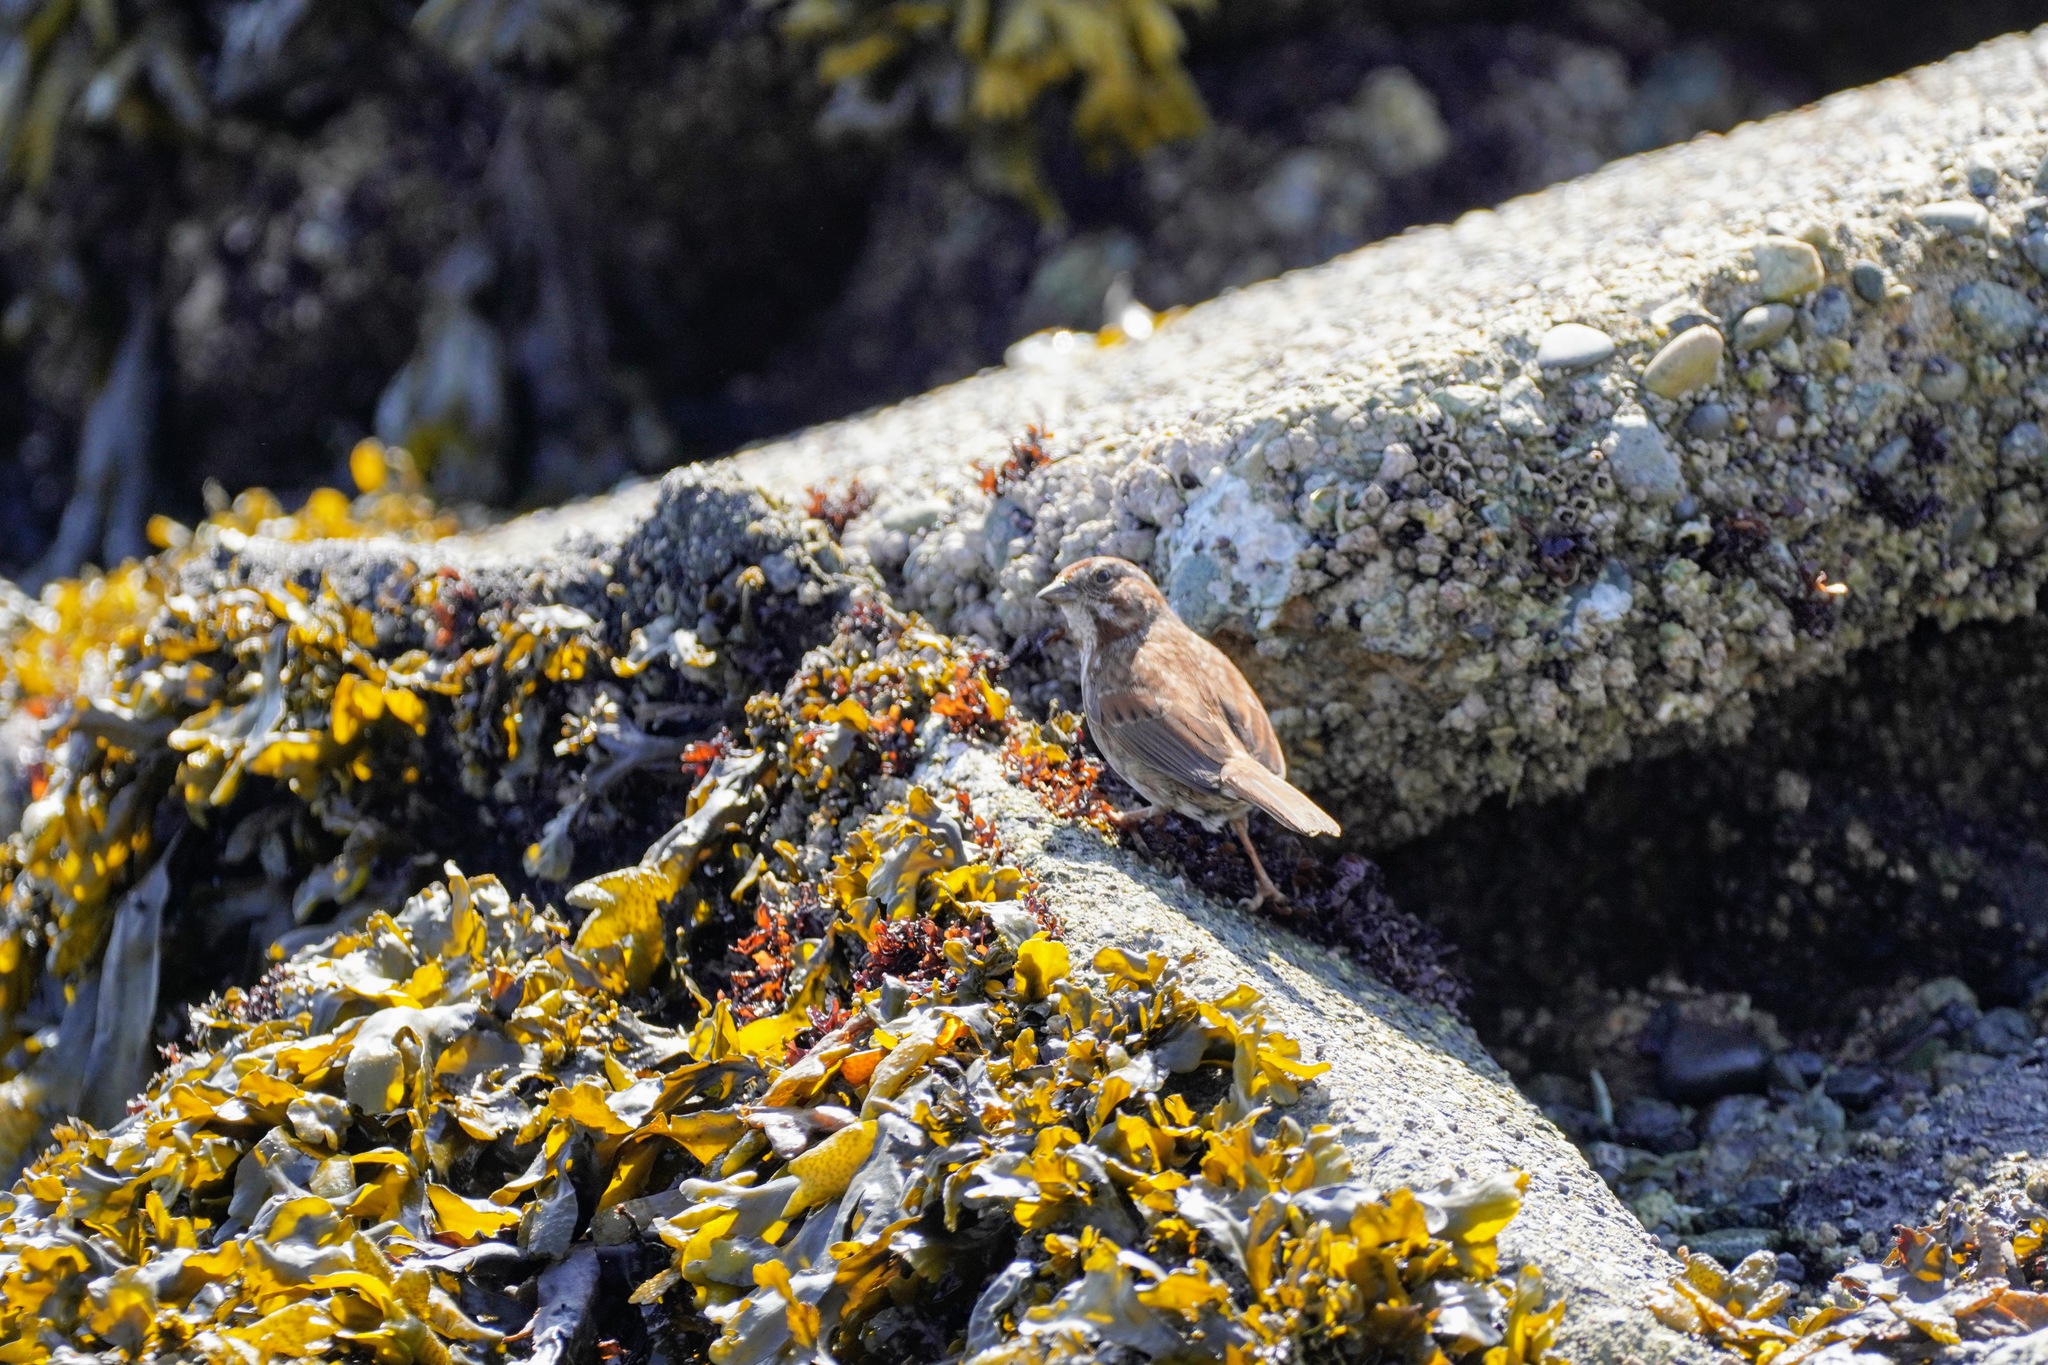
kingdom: Animalia
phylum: Chordata
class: Aves
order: Passeriformes
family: Passerellidae
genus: Melospiza
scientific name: Melospiza melodia
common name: Song sparrow
